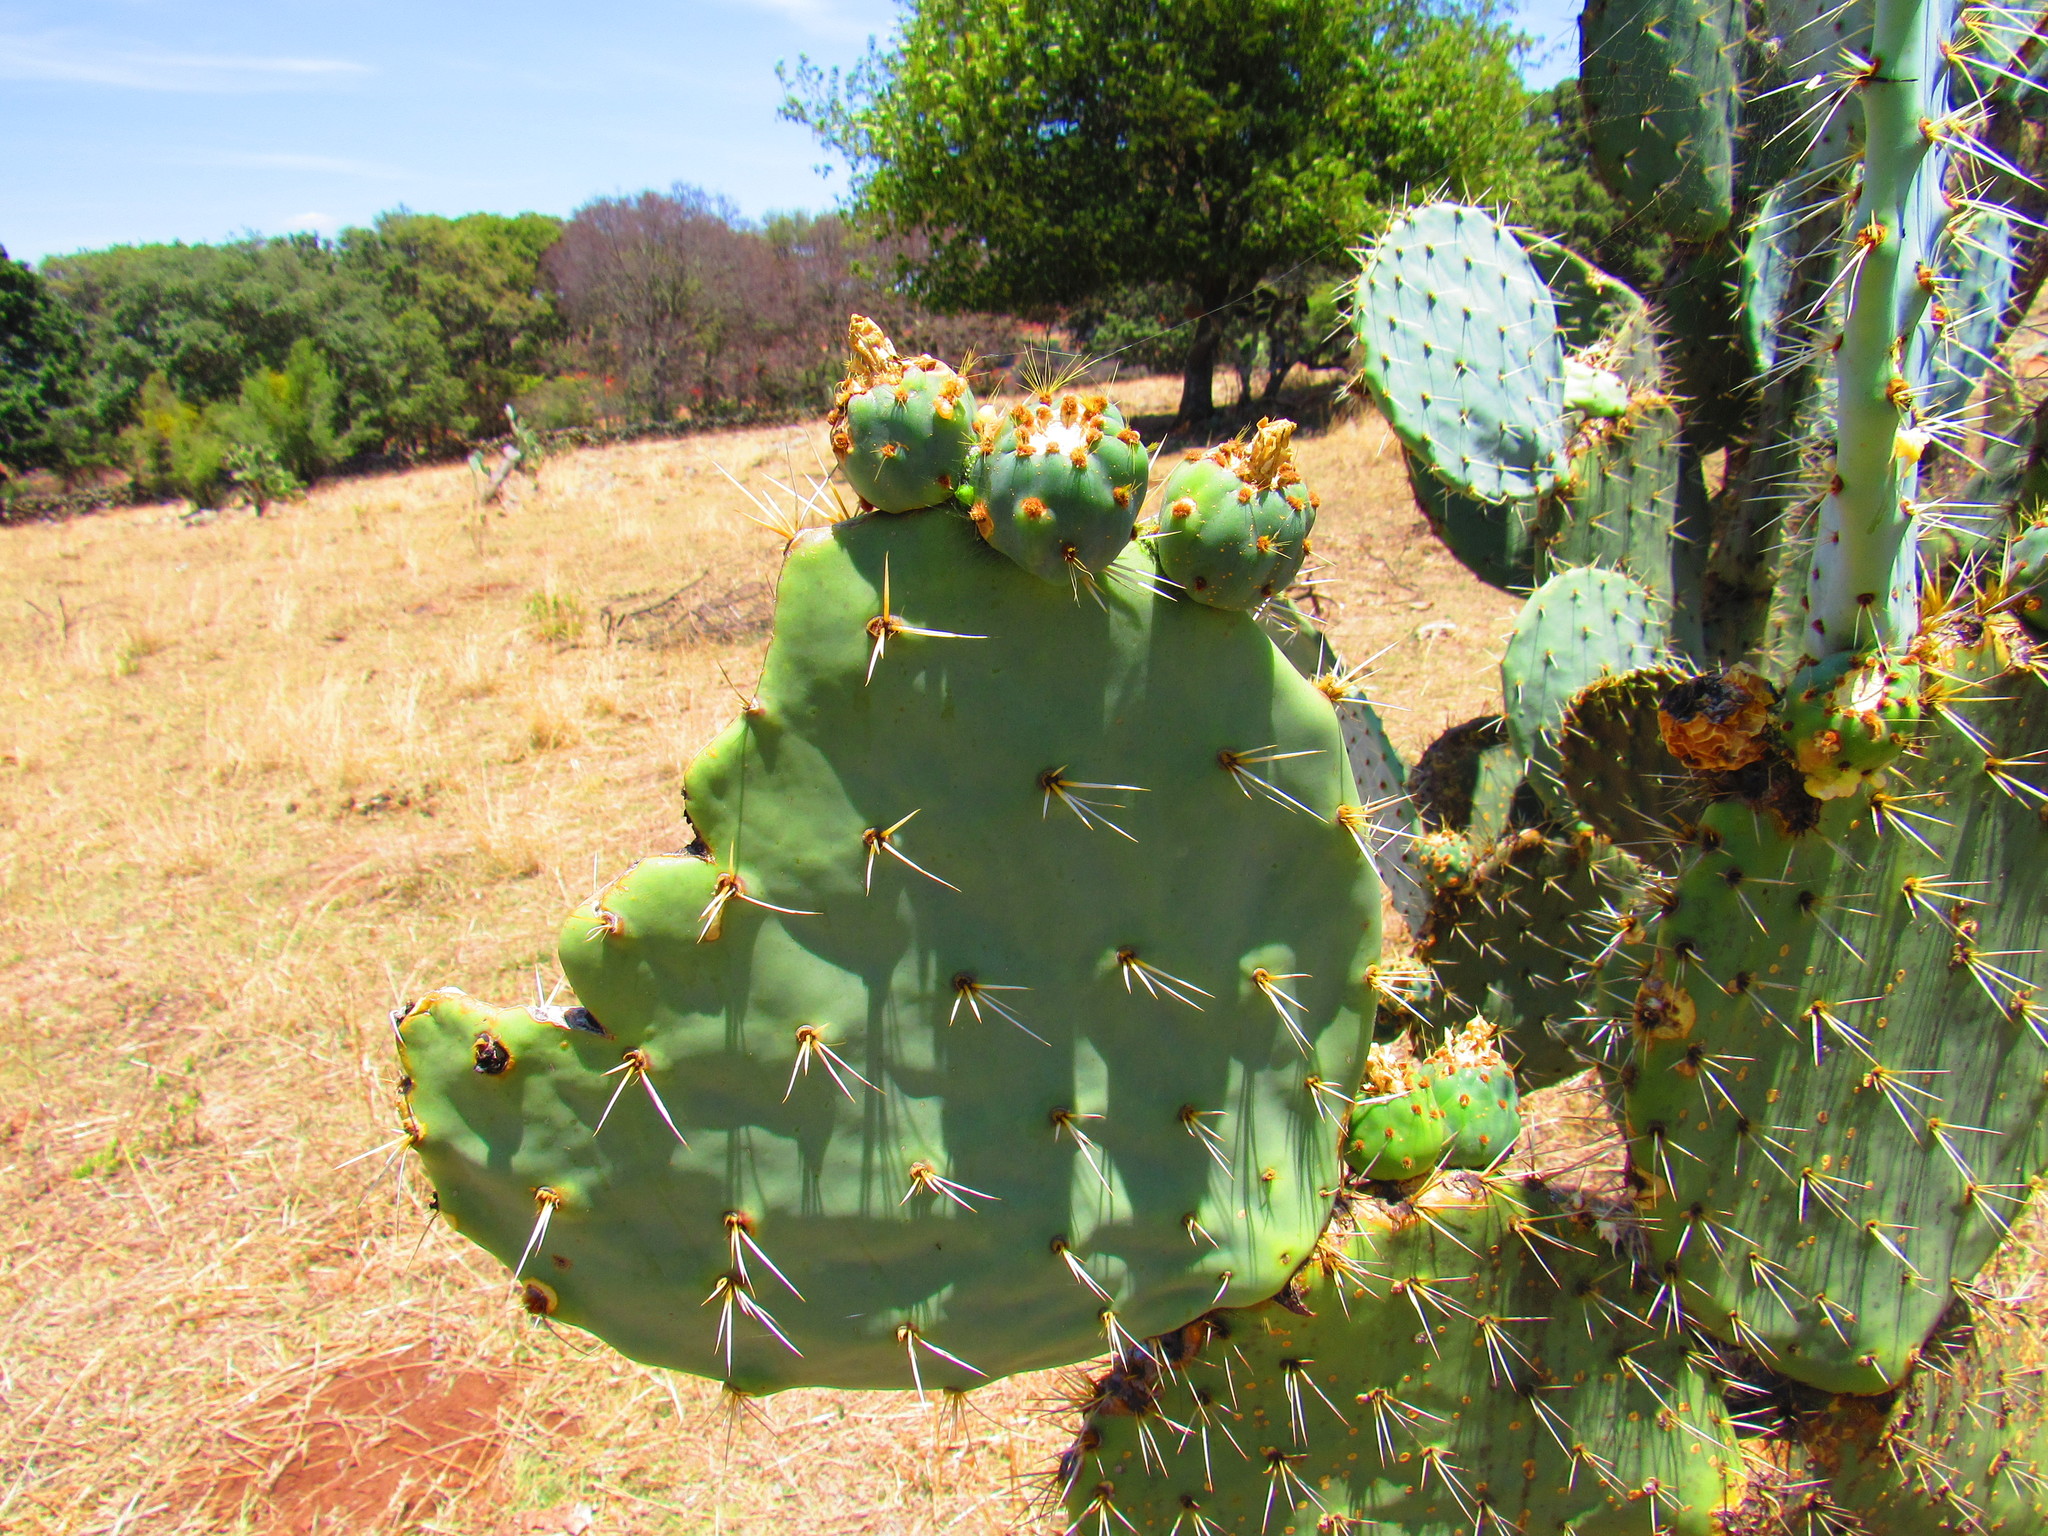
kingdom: Plantae
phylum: Tracheophyta
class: Magnoliopsida
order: Caryophyllales
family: Cactaceae
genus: Opuntia
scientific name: Opuntia robusta
